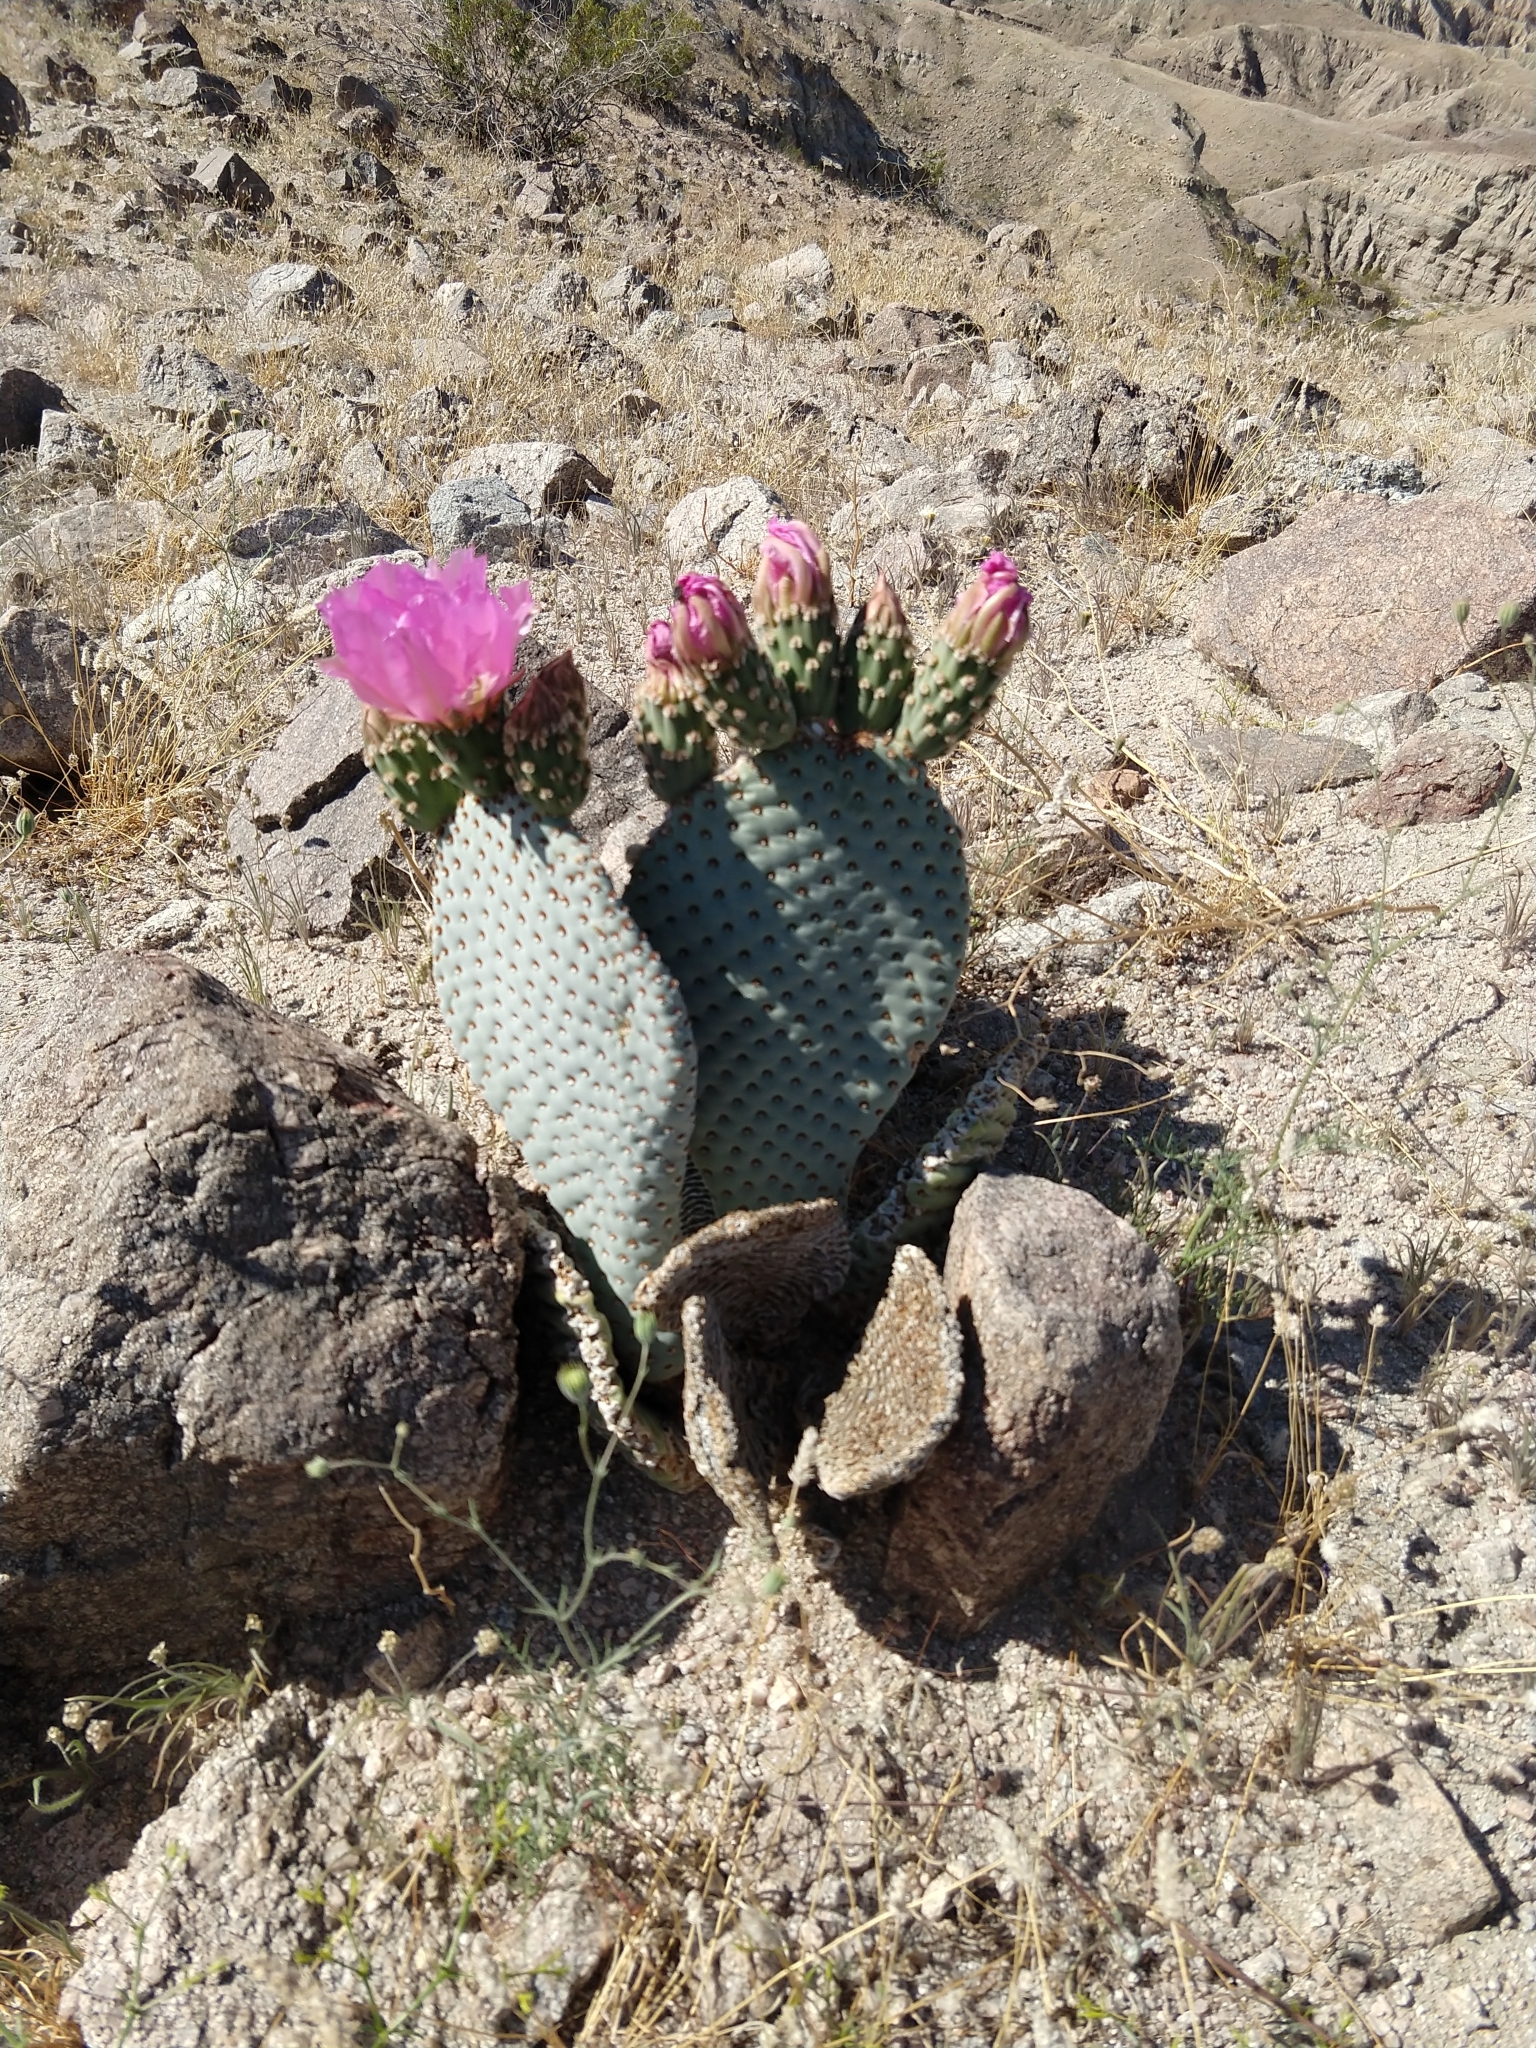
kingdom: Plantae
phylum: Tracheophyta
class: Magnoliopsida
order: Caryophyllales
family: Cactaceae
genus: Opuntia
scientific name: Opuntia basilaris
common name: Beavertail prickly-pear
